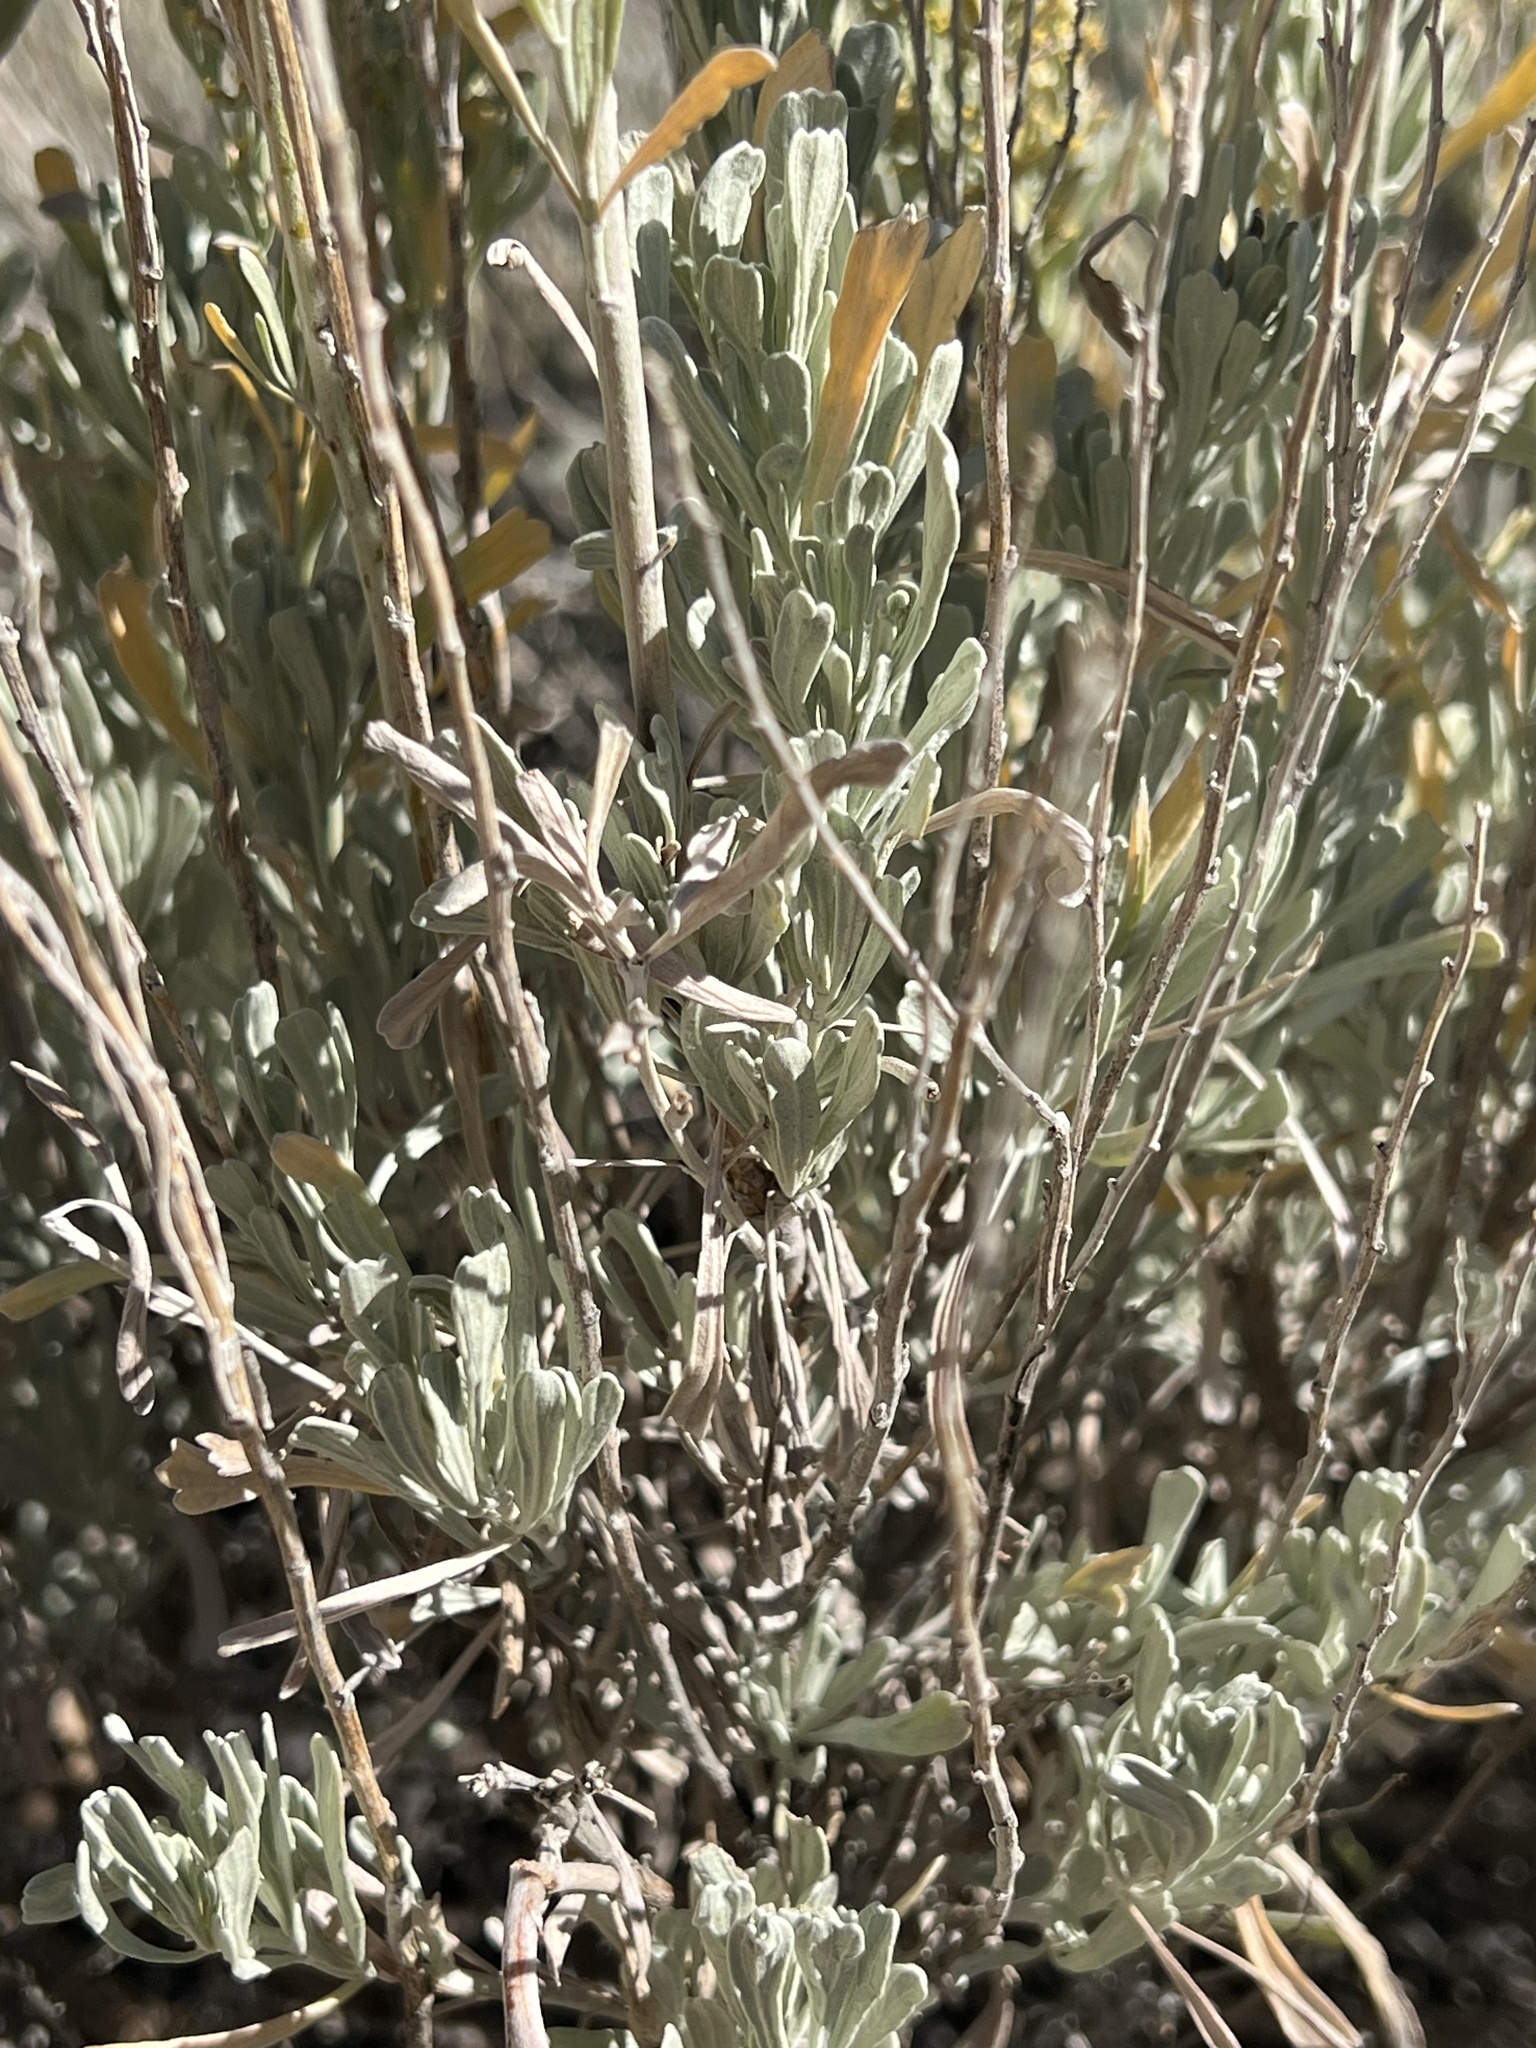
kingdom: Plantae
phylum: Tracheophyta
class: Magnoliopsida
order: Asterales
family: Asteraceae
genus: Artemisia
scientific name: Artemisia tridentata
